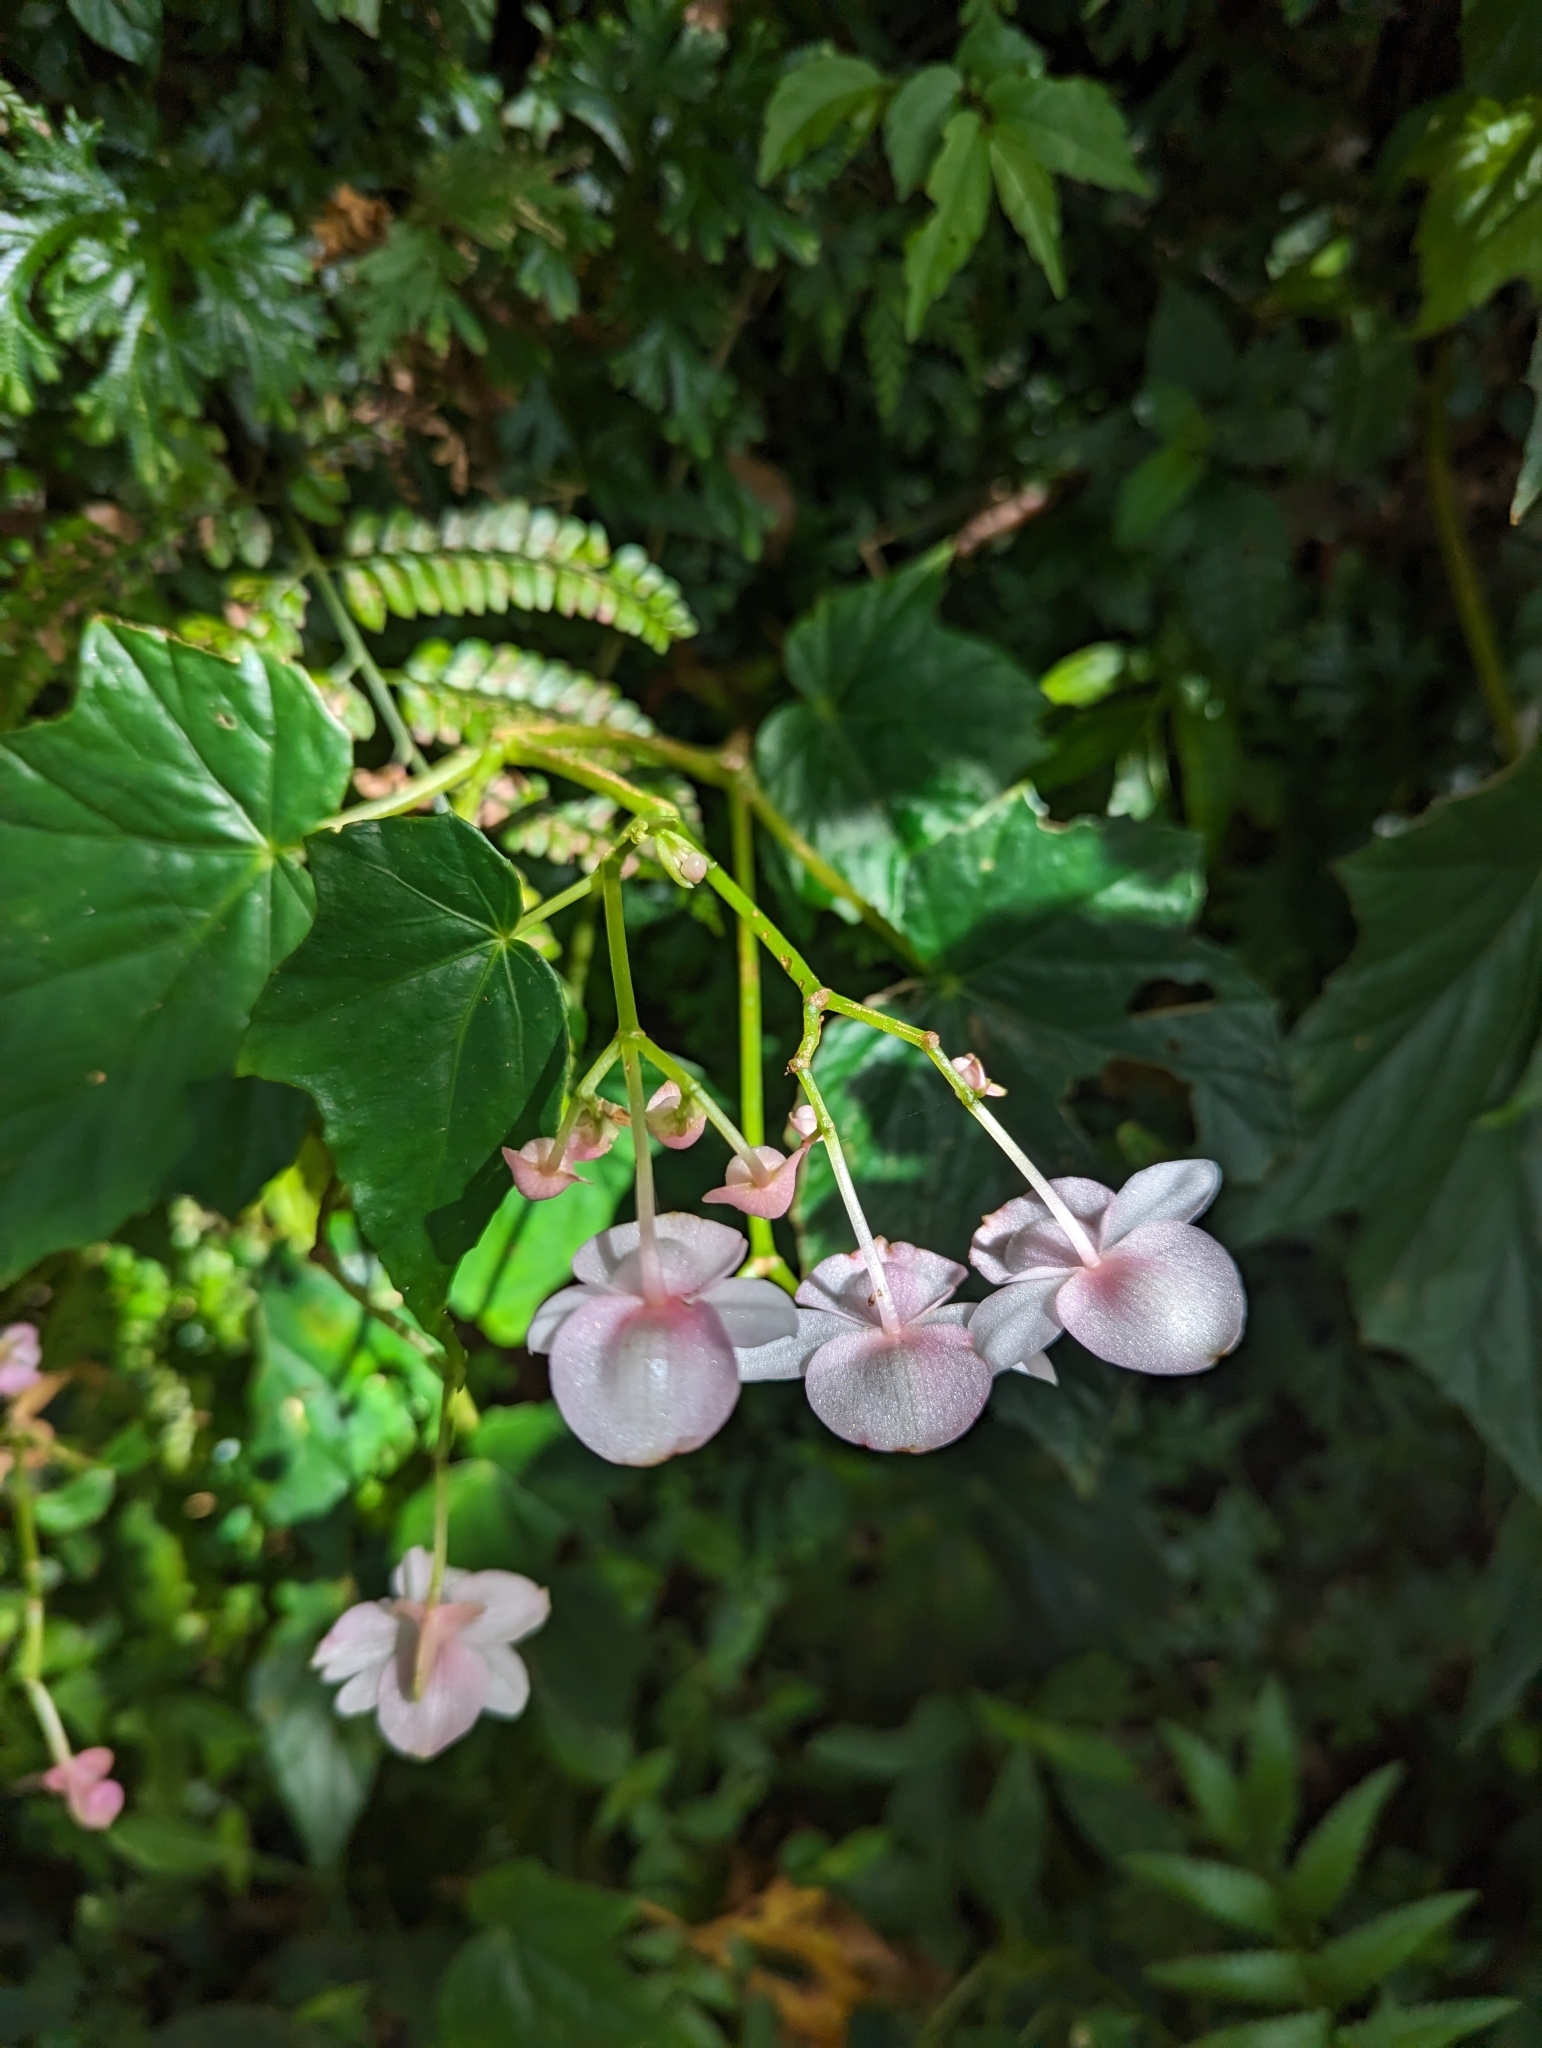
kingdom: Plantae
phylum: Tracheophyta
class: Magnoliopsida
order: Cucurbitales
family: Begoniaceae
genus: Begonia
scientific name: Begonia formosana
